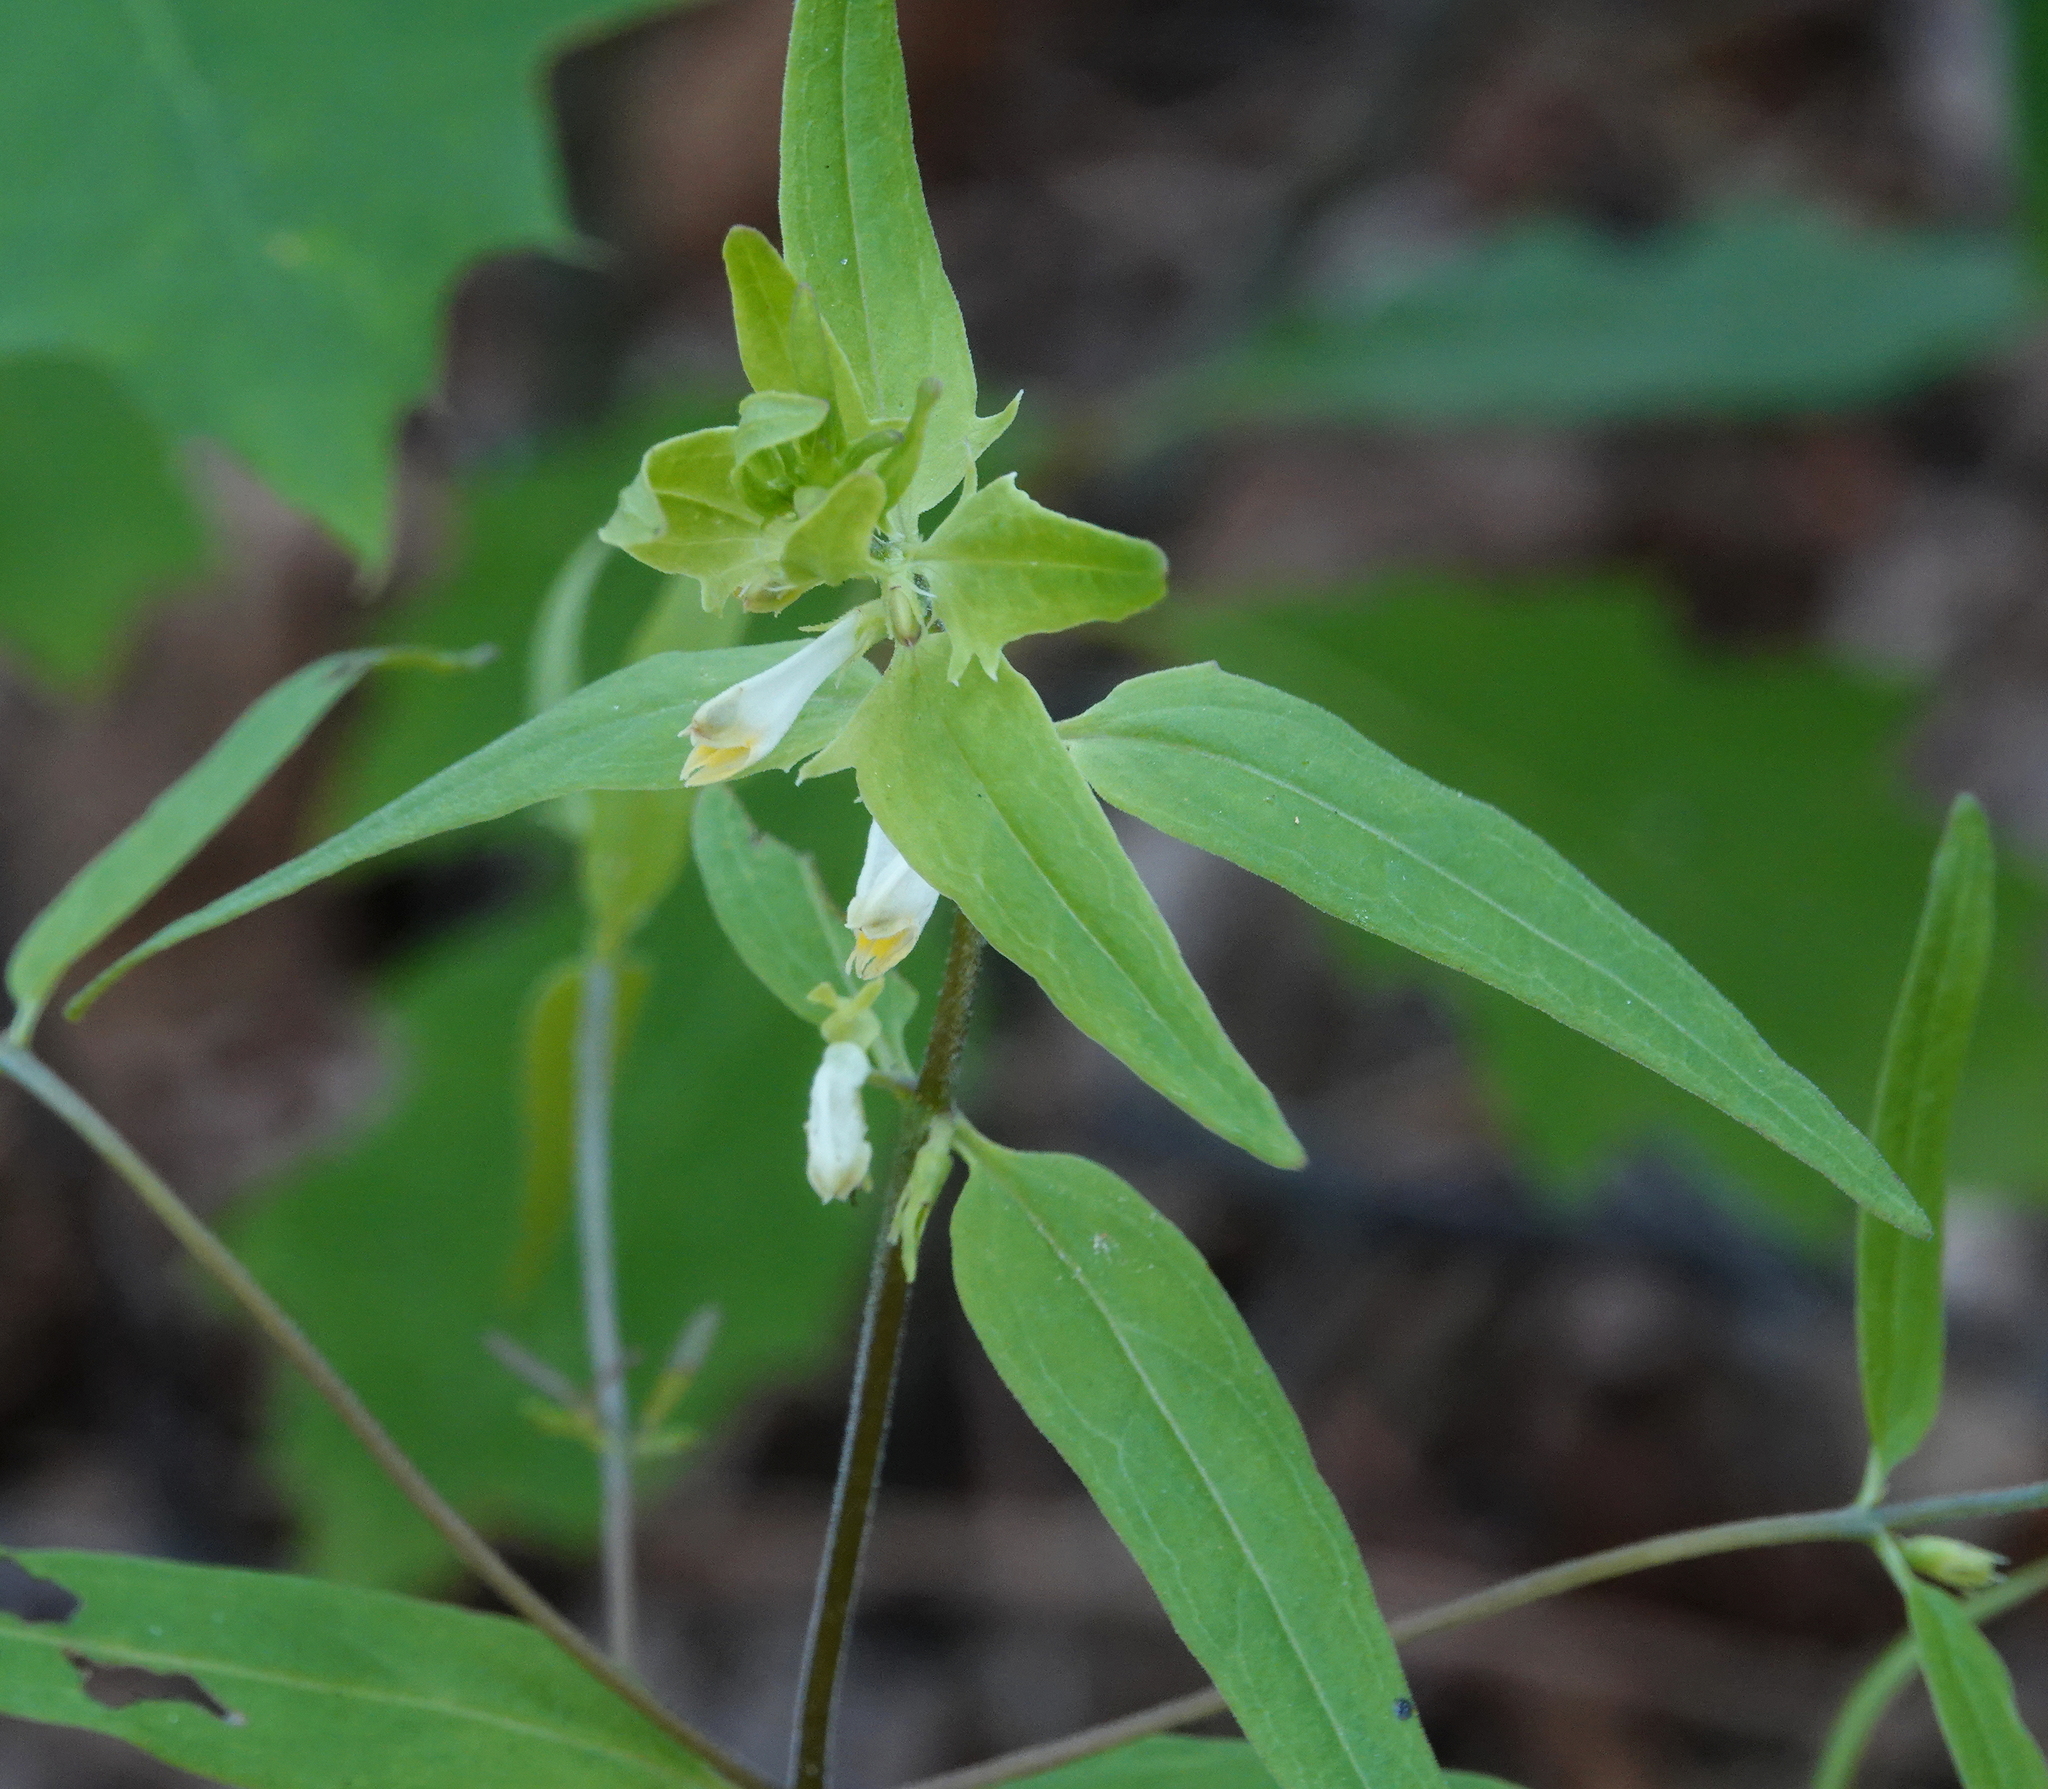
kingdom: Plantae
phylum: Tracheophyta
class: Magnoliopsida
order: Lamiales
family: Orobanchaceae
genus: Melampyrum
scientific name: Melampyrum lineare
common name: American cow-wheat
